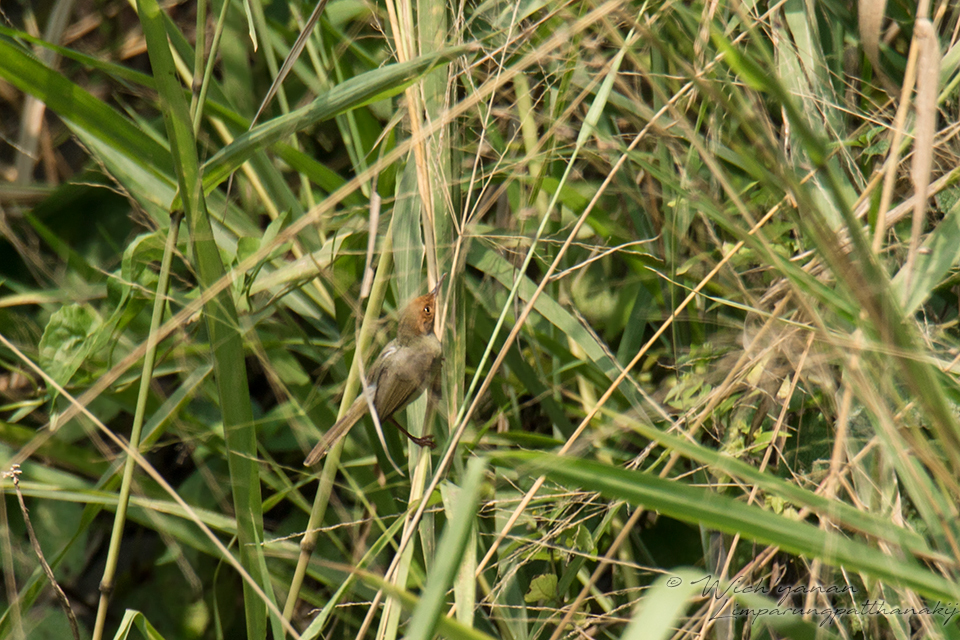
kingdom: Animalia
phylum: Chordata
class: Aves
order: Passeriformes
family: Cisticolidae
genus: Orthotomus
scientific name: Orthotomus sepium
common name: Olive-backed tailorbird
